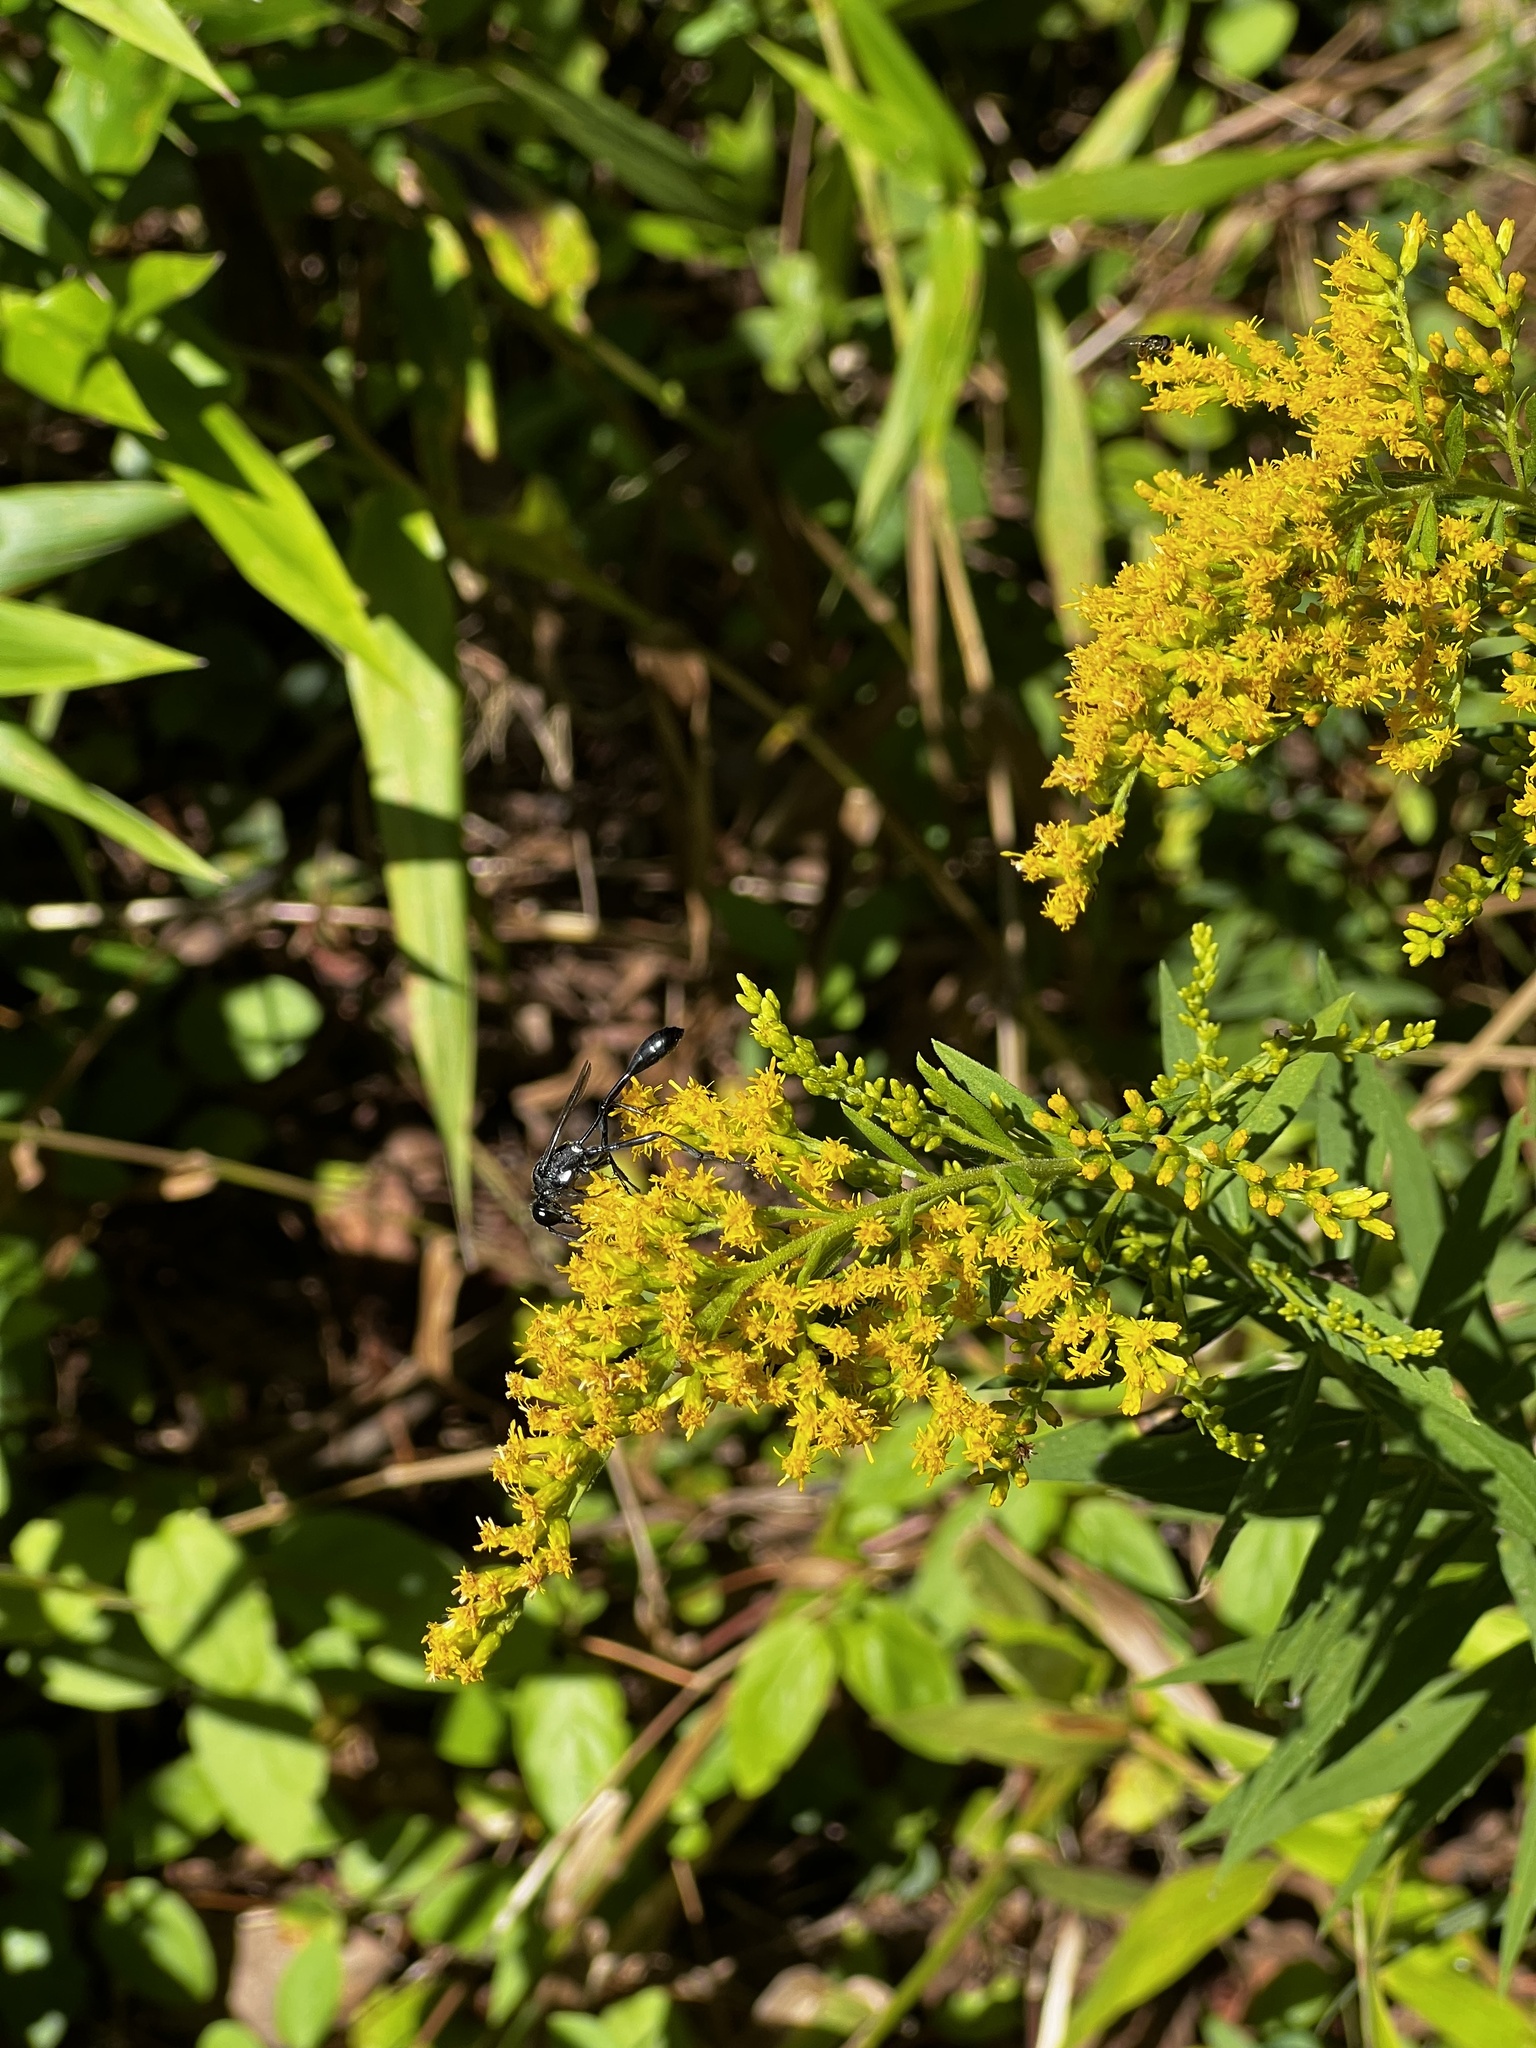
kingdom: Animalia
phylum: Arthropoda
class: Insecta
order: Hymenoptera
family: Sphecidae
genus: Eremnophila
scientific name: Eremnophila aureonotata
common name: Gold-marked thread-waisted wasp
